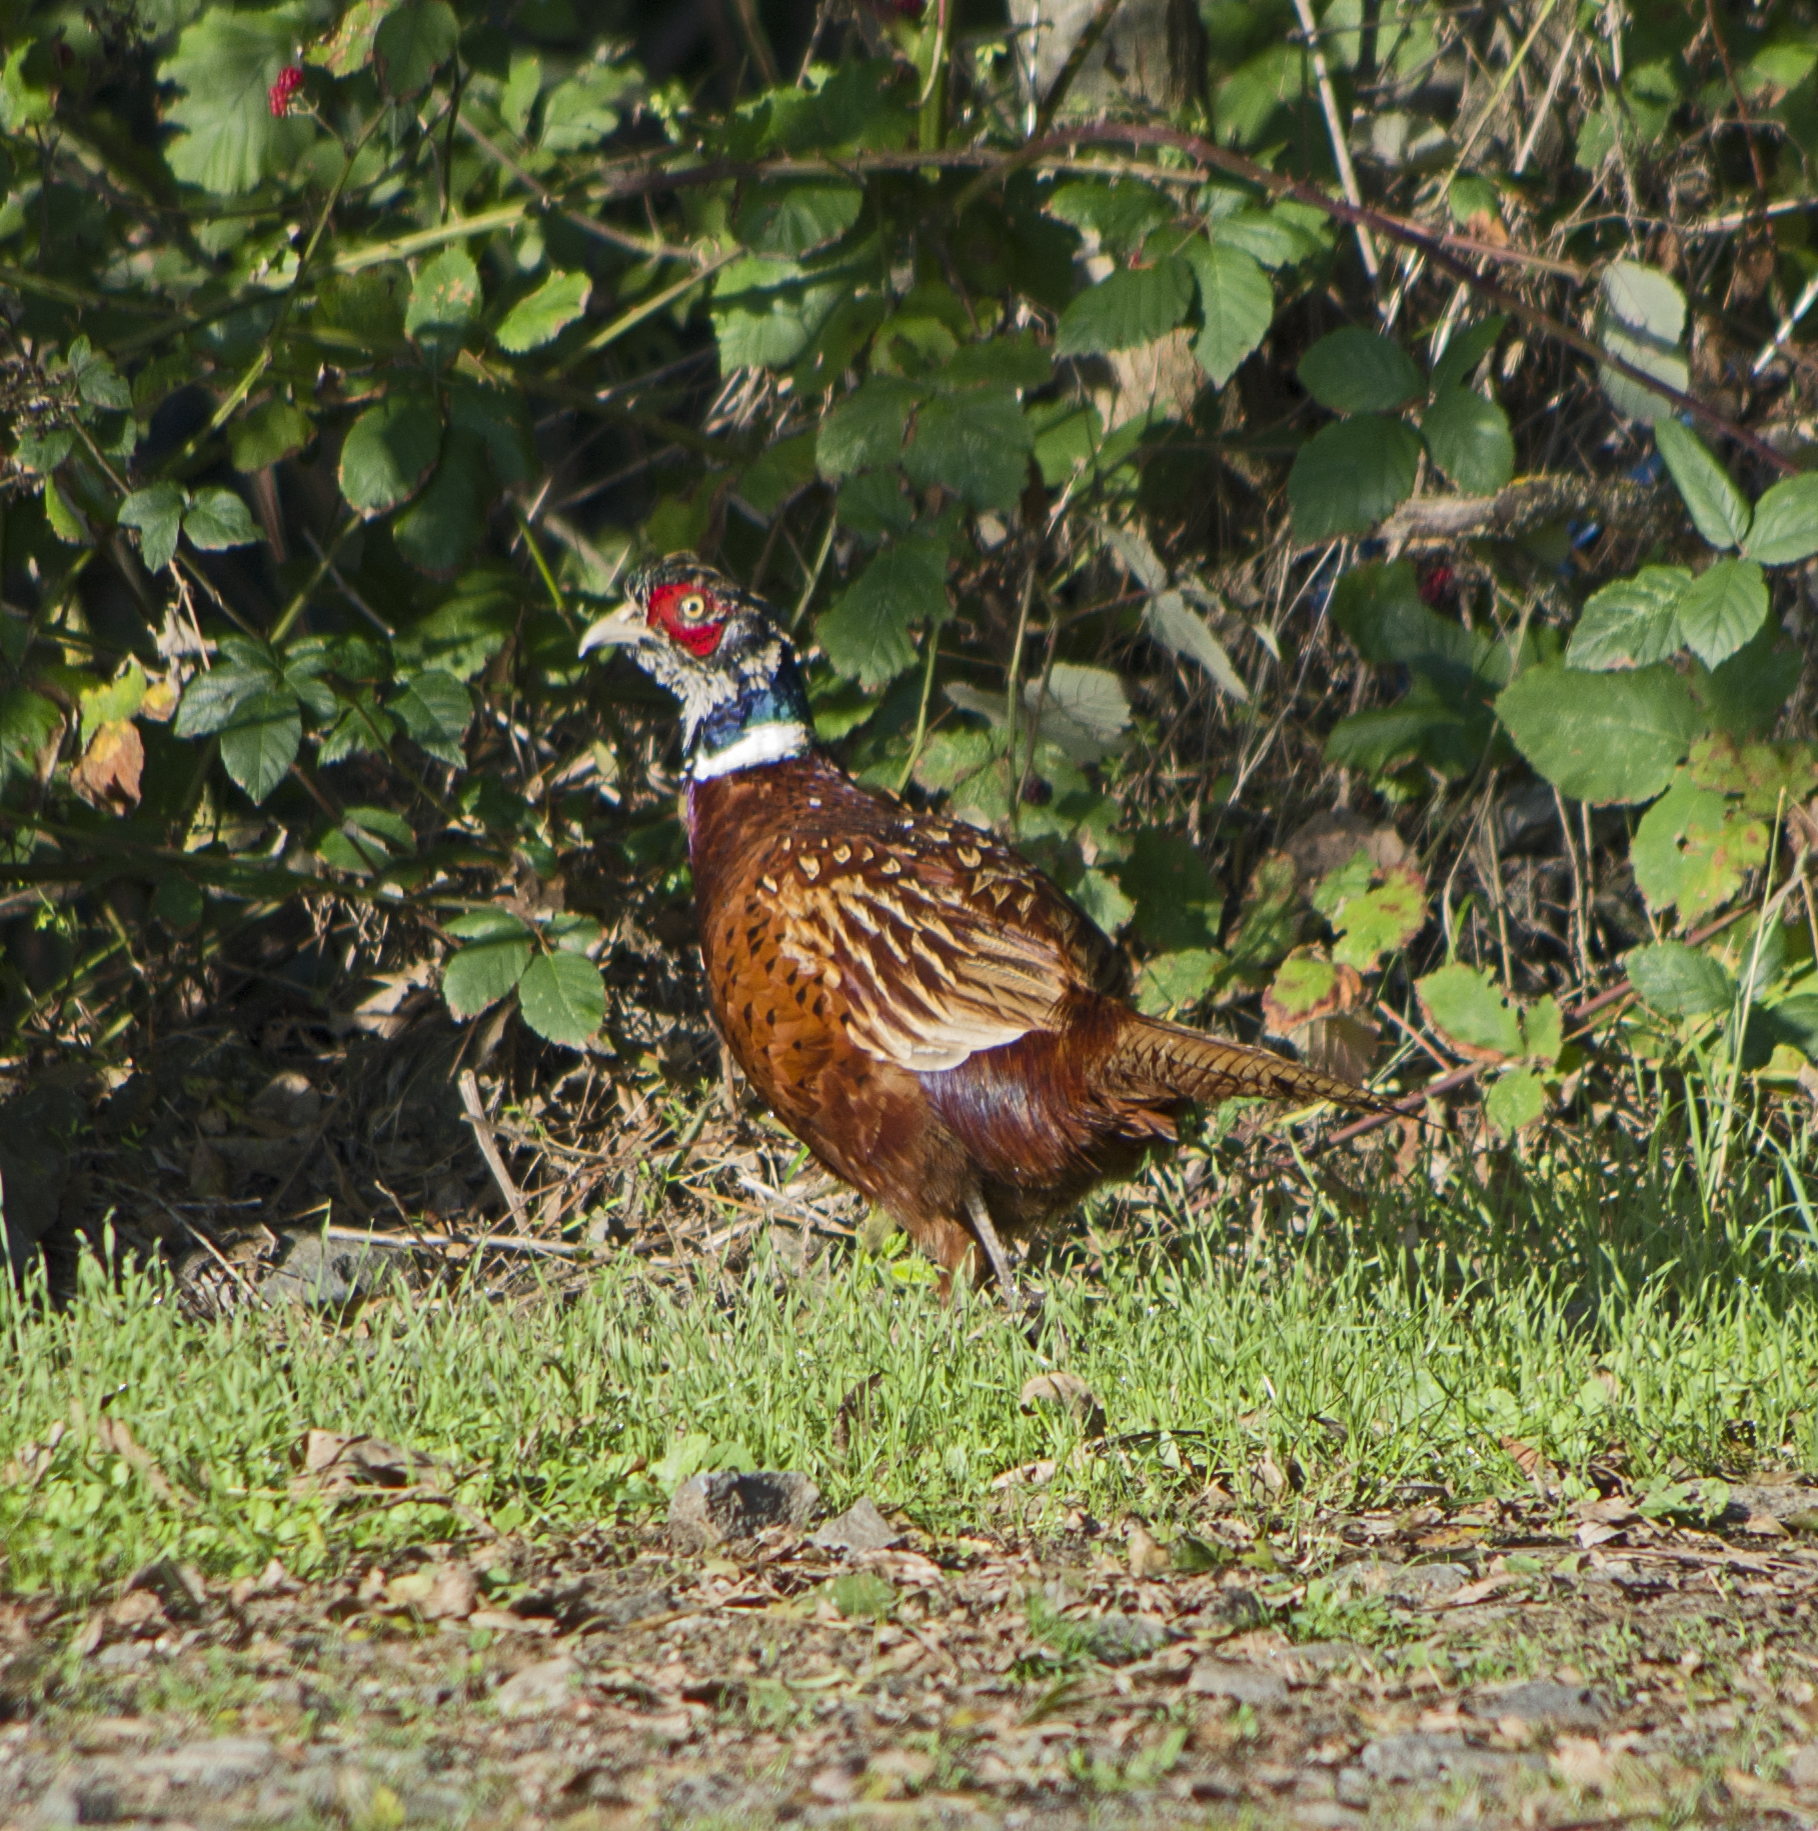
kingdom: Animalia
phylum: Chordata
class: Aves
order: Galliformes
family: Phasianidae
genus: Phasianus
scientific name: Phasianus colchicus
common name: Common pheasant
